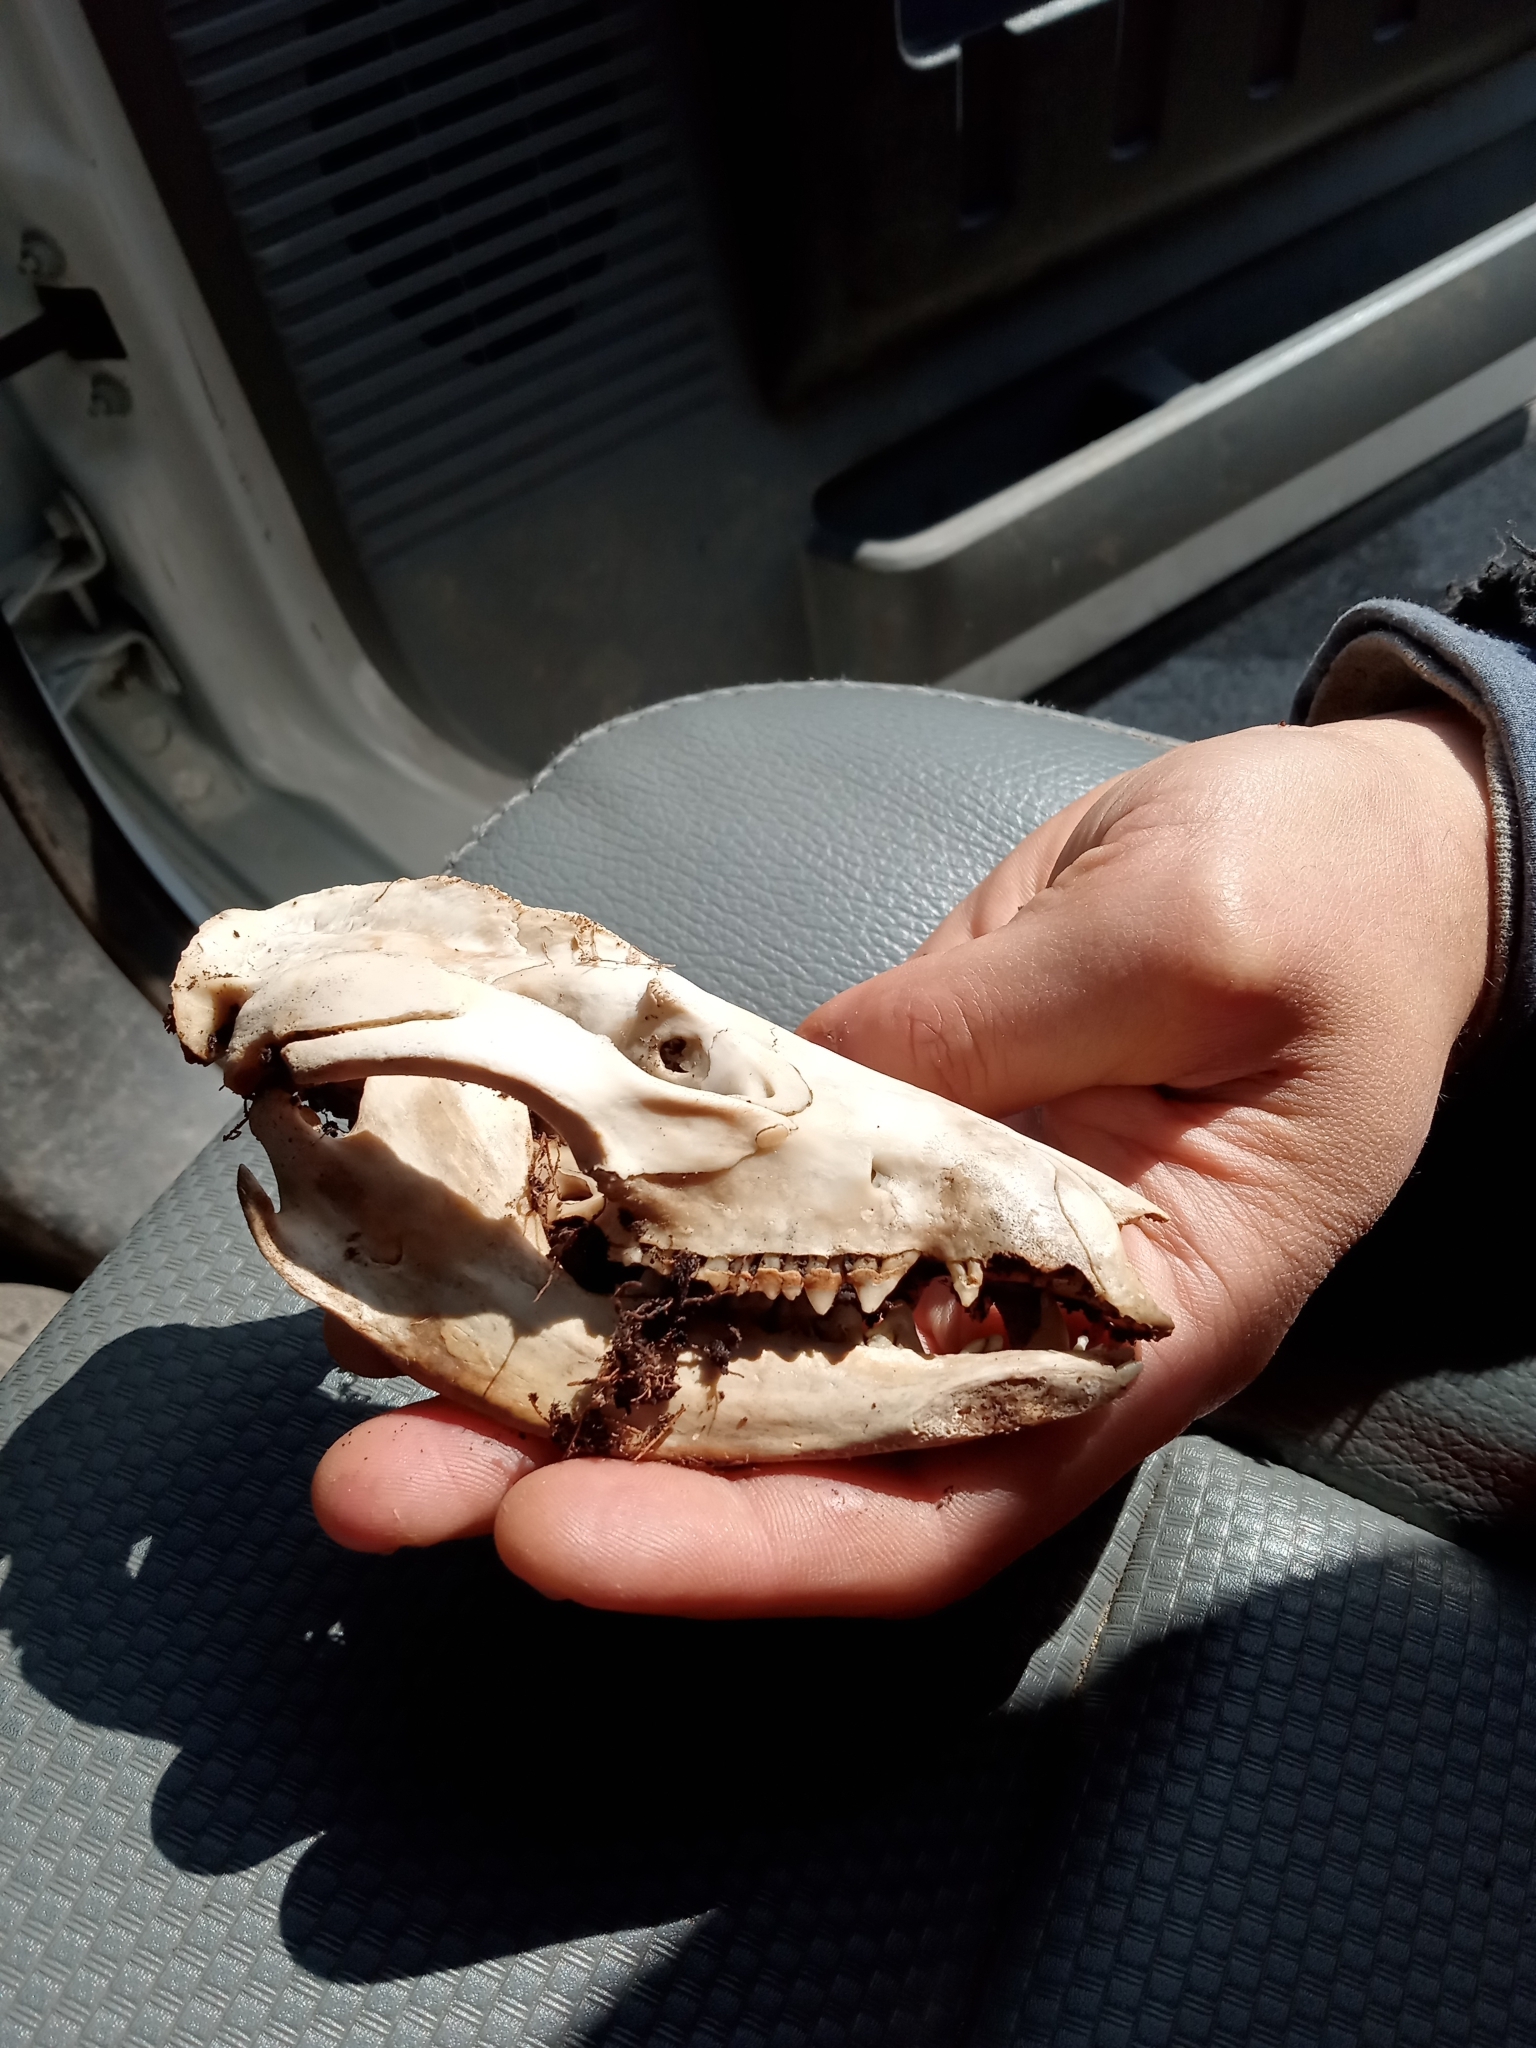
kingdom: Animalia
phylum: Chordata
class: Mammalia
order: Didelphimorphia
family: Didelphidae
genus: Didelphis
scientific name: Didelphis virginiana
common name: Virginia opossum
